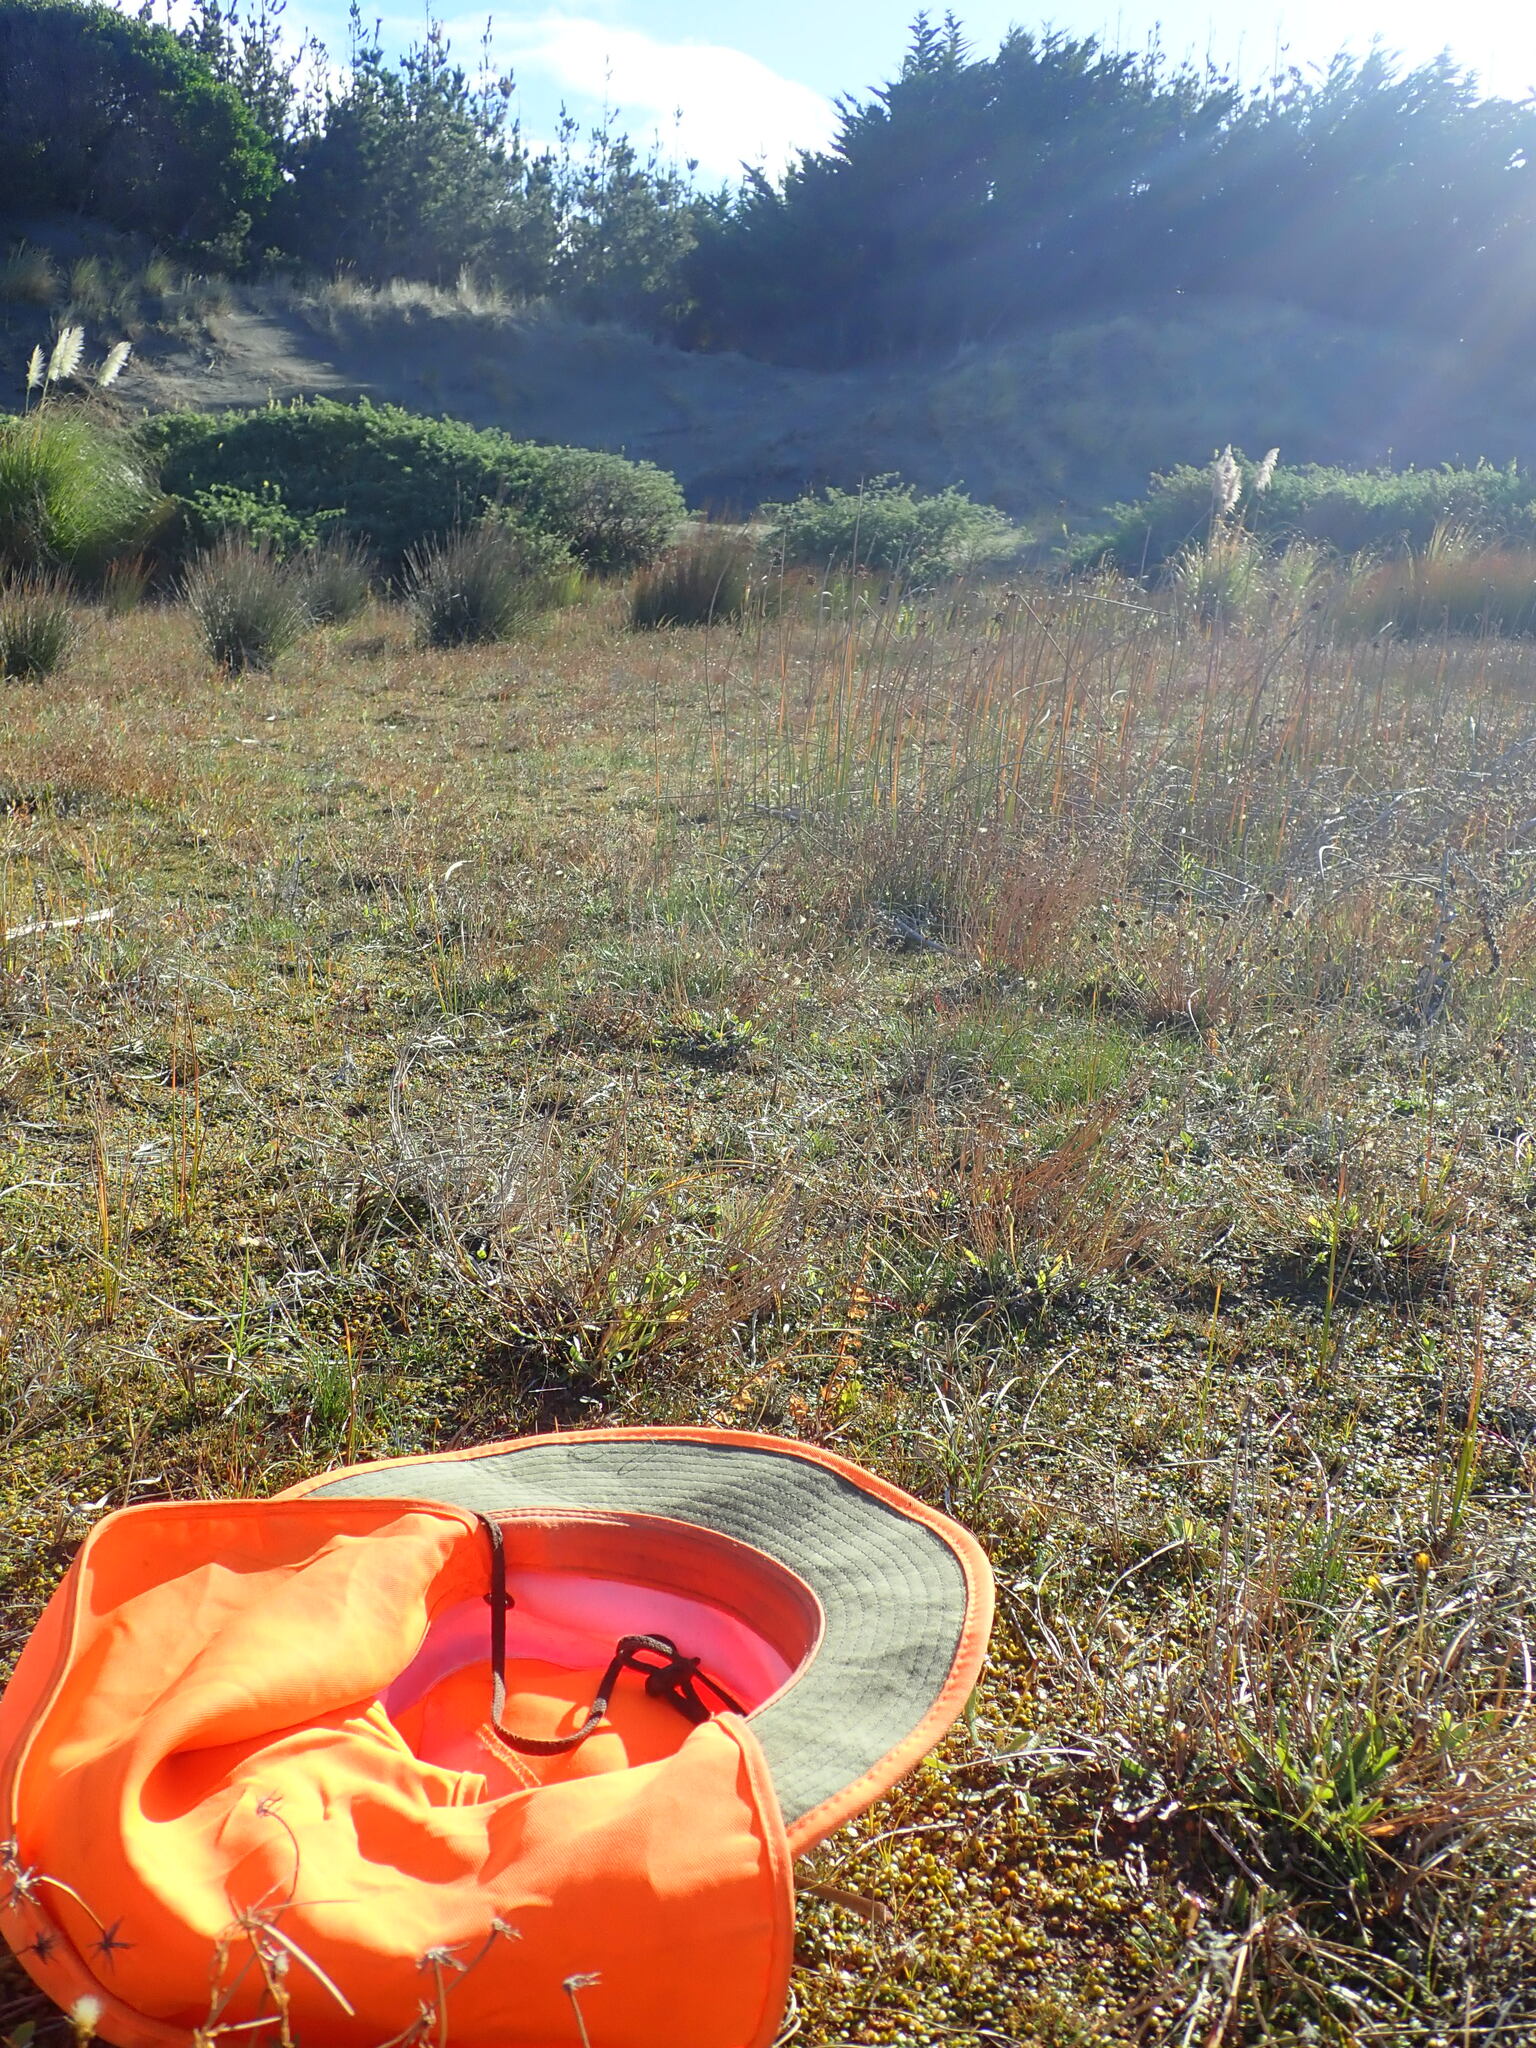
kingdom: Plantae
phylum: Tracheophyta
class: Liliopsida
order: Poales
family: Cyperaceae
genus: Isolepis
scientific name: Isolepis cernua
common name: Slender club-rush
